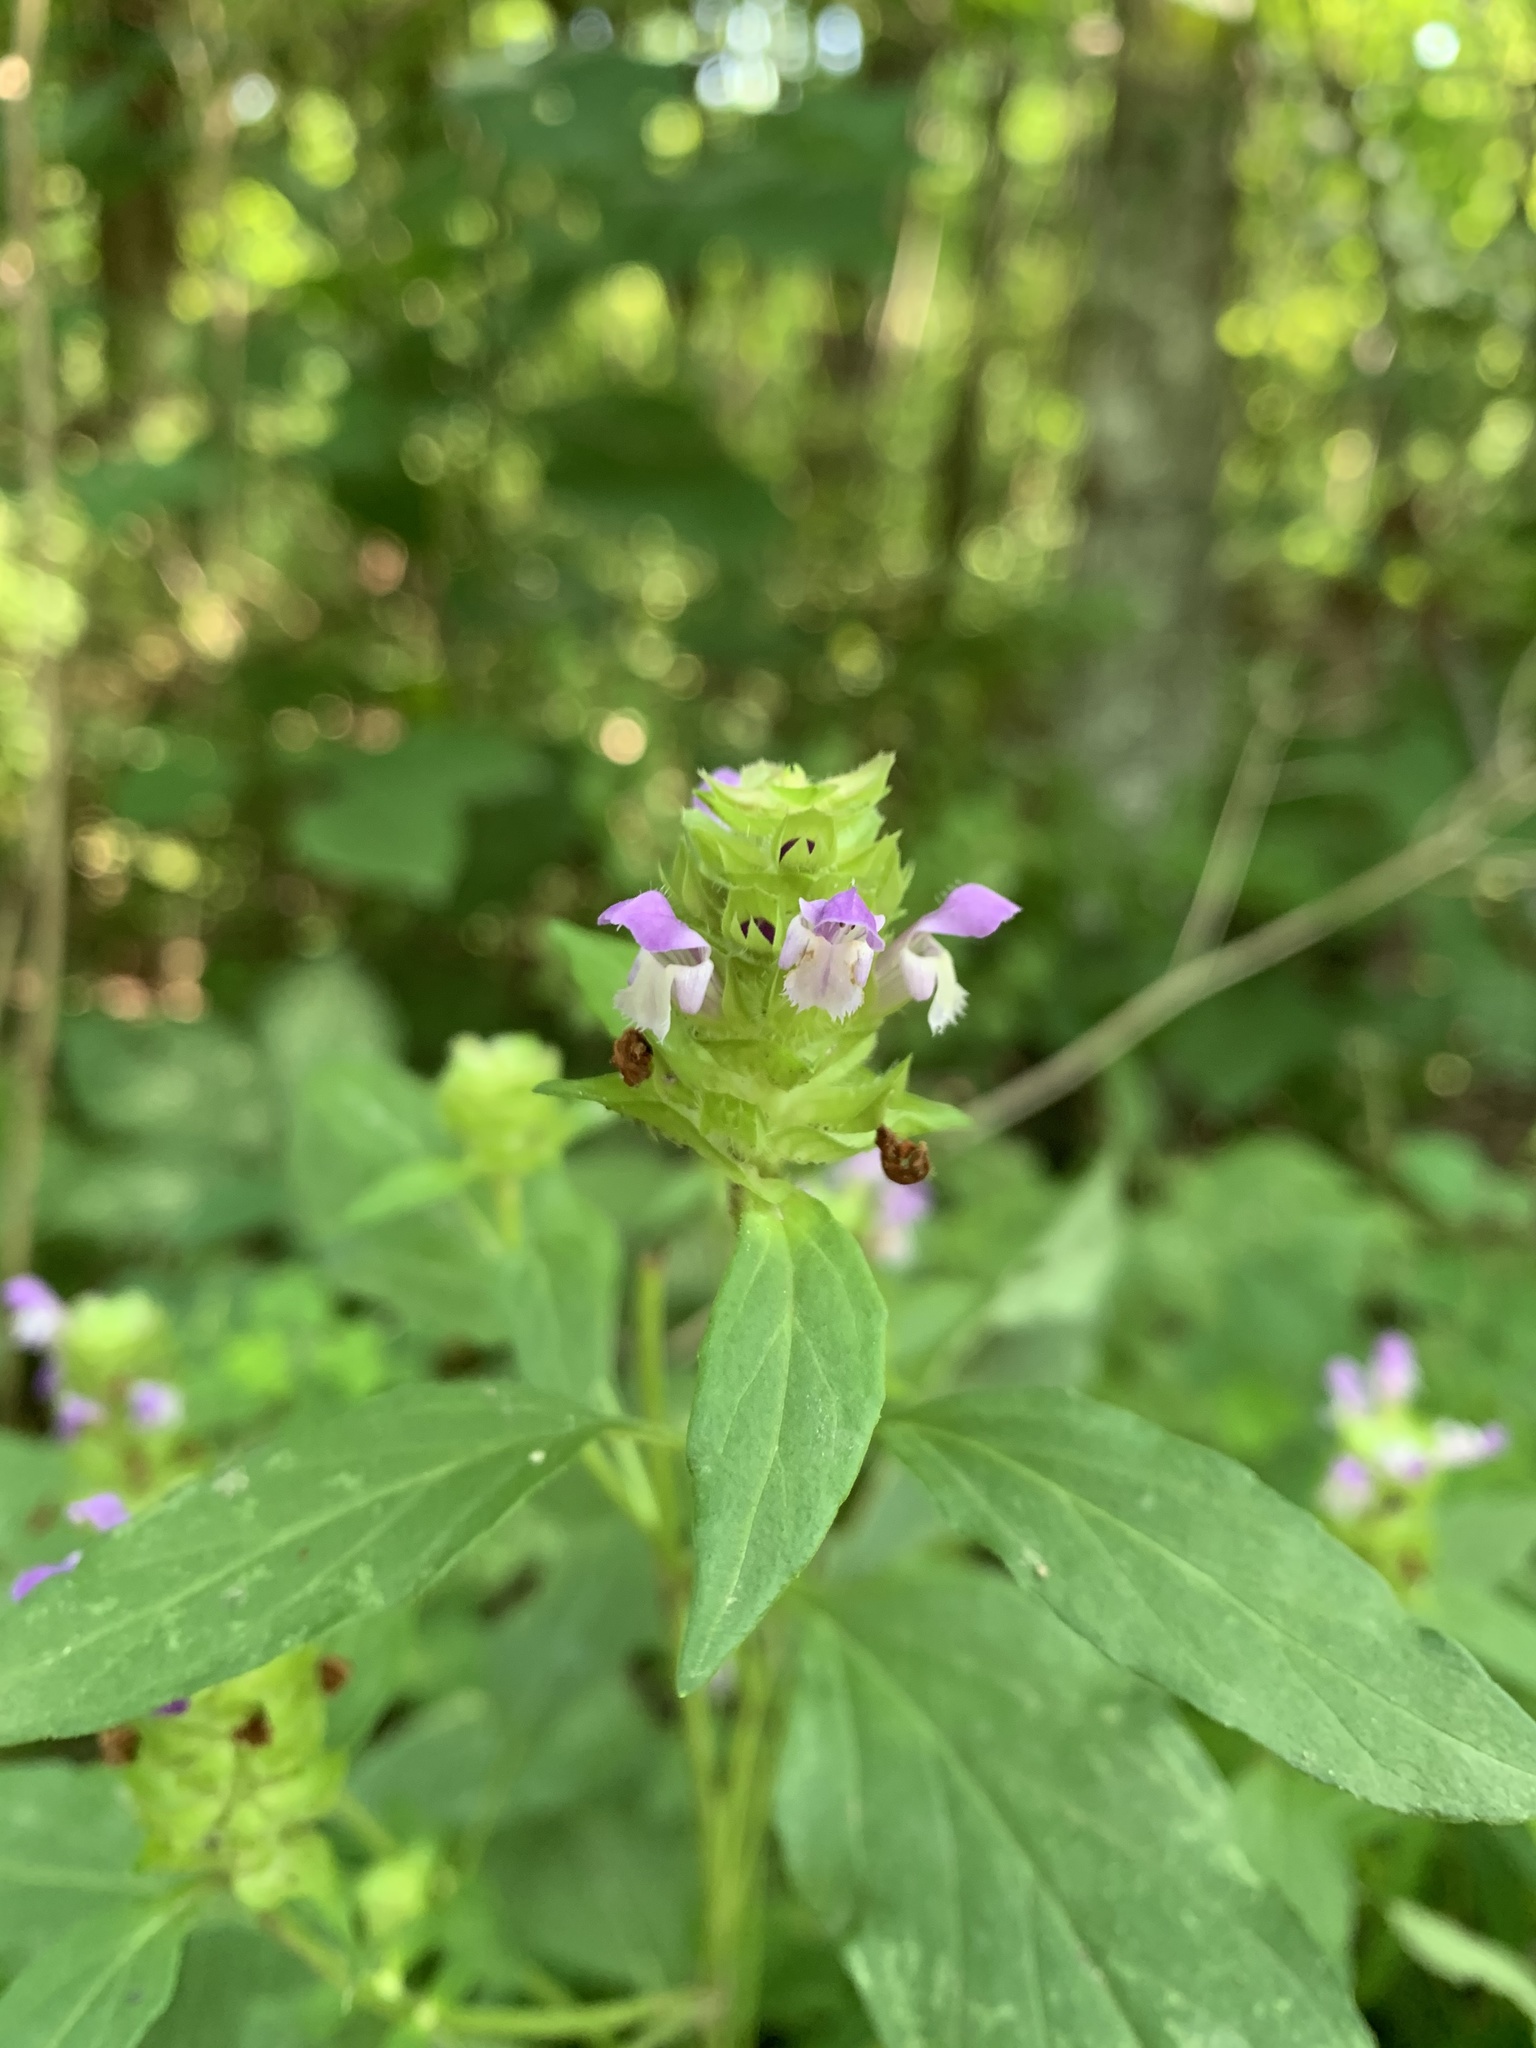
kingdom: Plantae
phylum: Tracheophyta
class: Magnoliopsida
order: Lamiales
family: Lamiaceae
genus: Prunella
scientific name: Prunella vulgaris
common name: Heal-all
